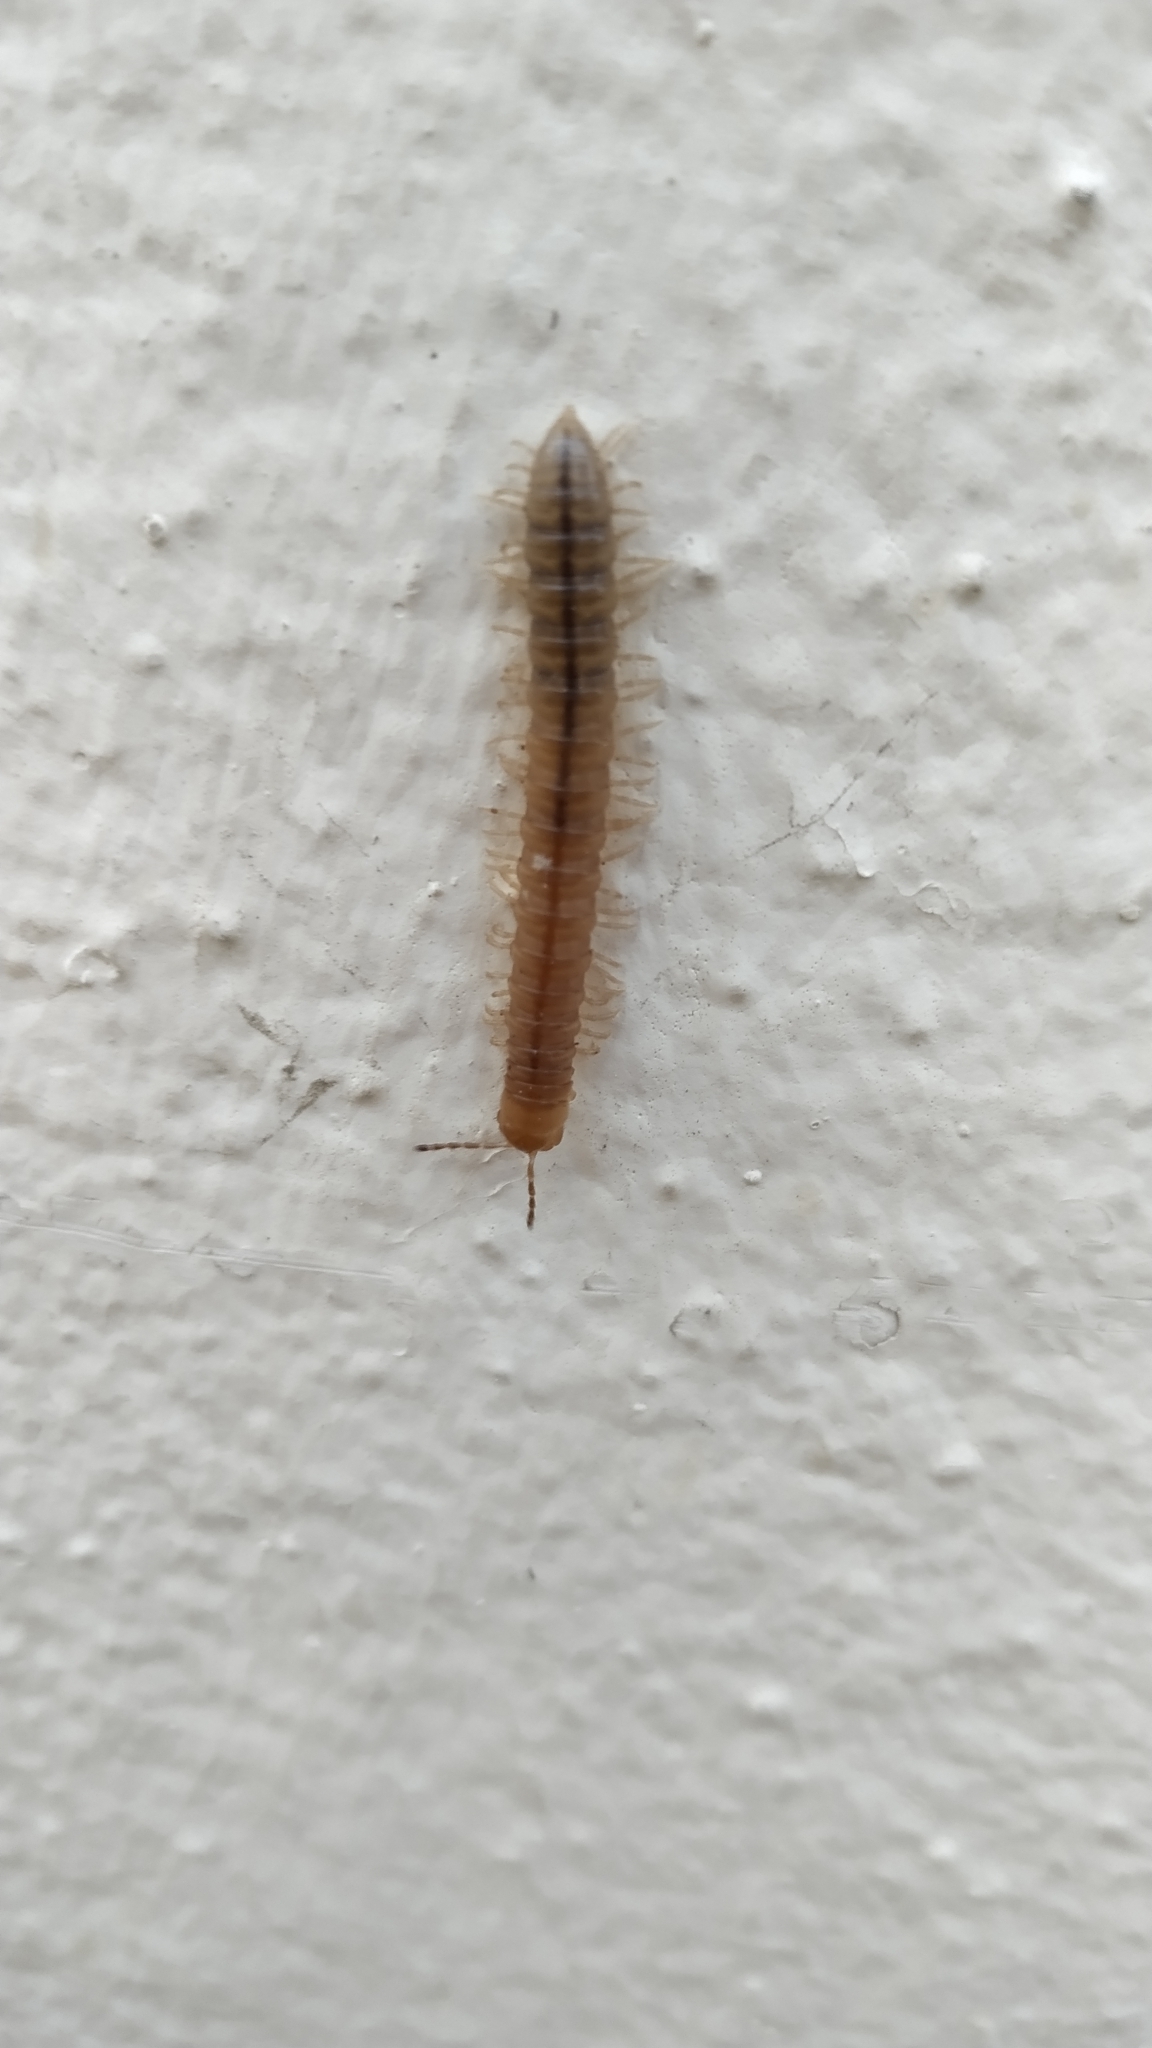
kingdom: Animalia
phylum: Arthropoda
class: Diplopoda
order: Polydesmida
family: Paradoxosomatidae
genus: Oranmorpha
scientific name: Oranmorpha guerinii
